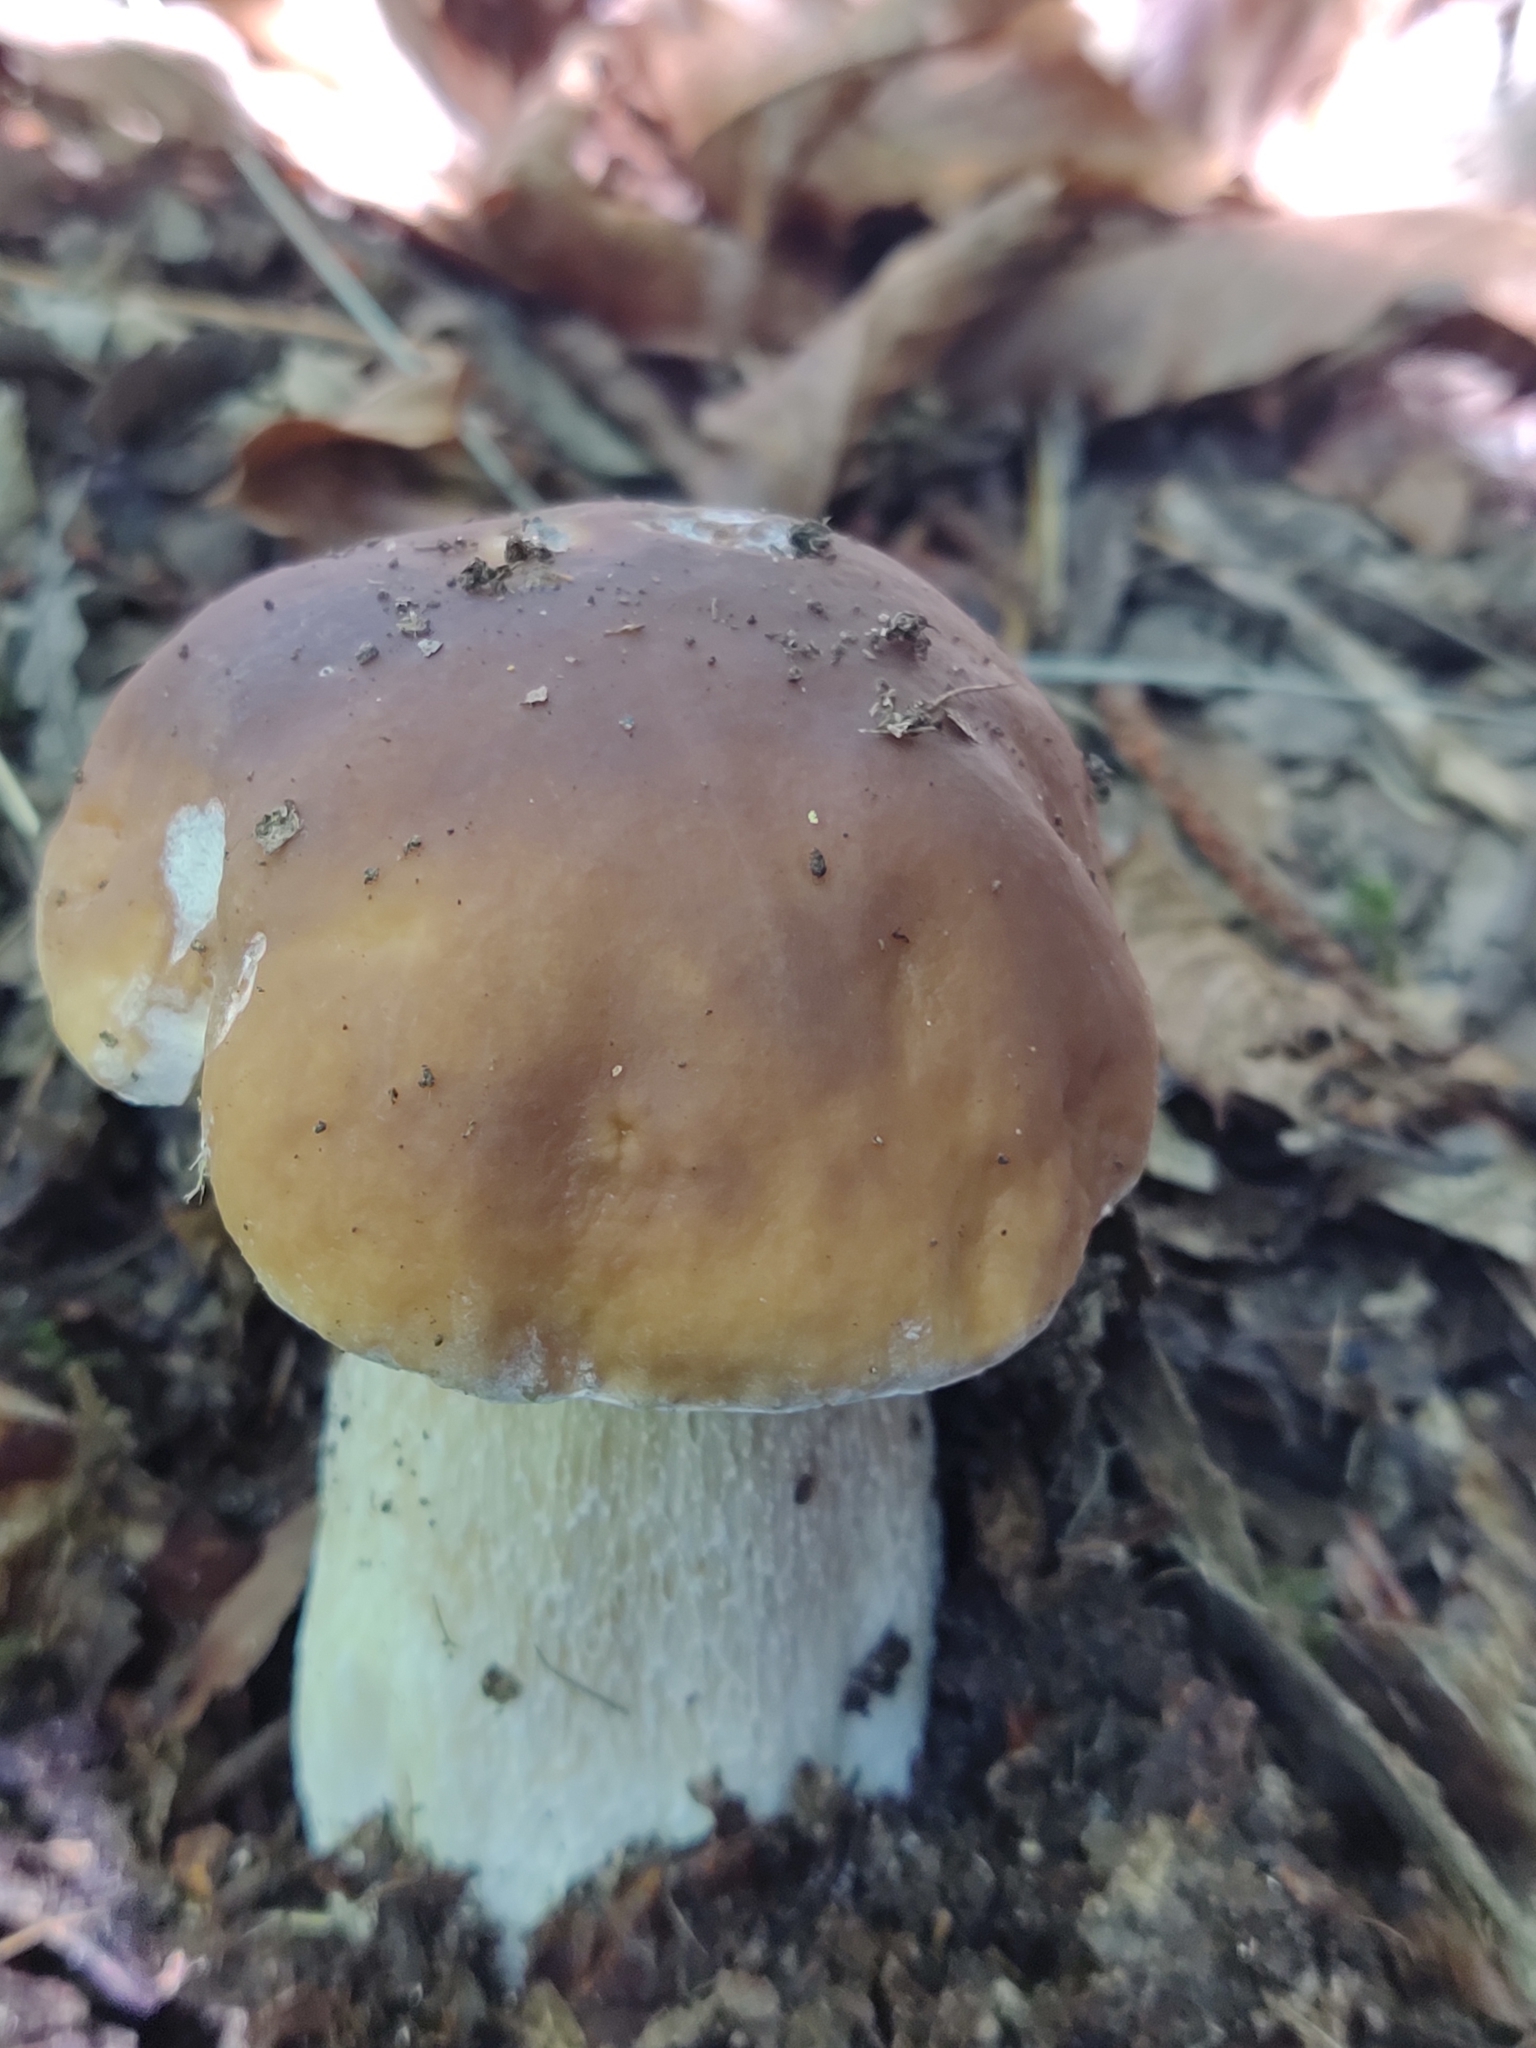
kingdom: Fungi
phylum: Basidiomycota
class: Agaricomycetes
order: Boletales
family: Boletaceae
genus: Boletus
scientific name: Boletus edulis
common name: Cep
